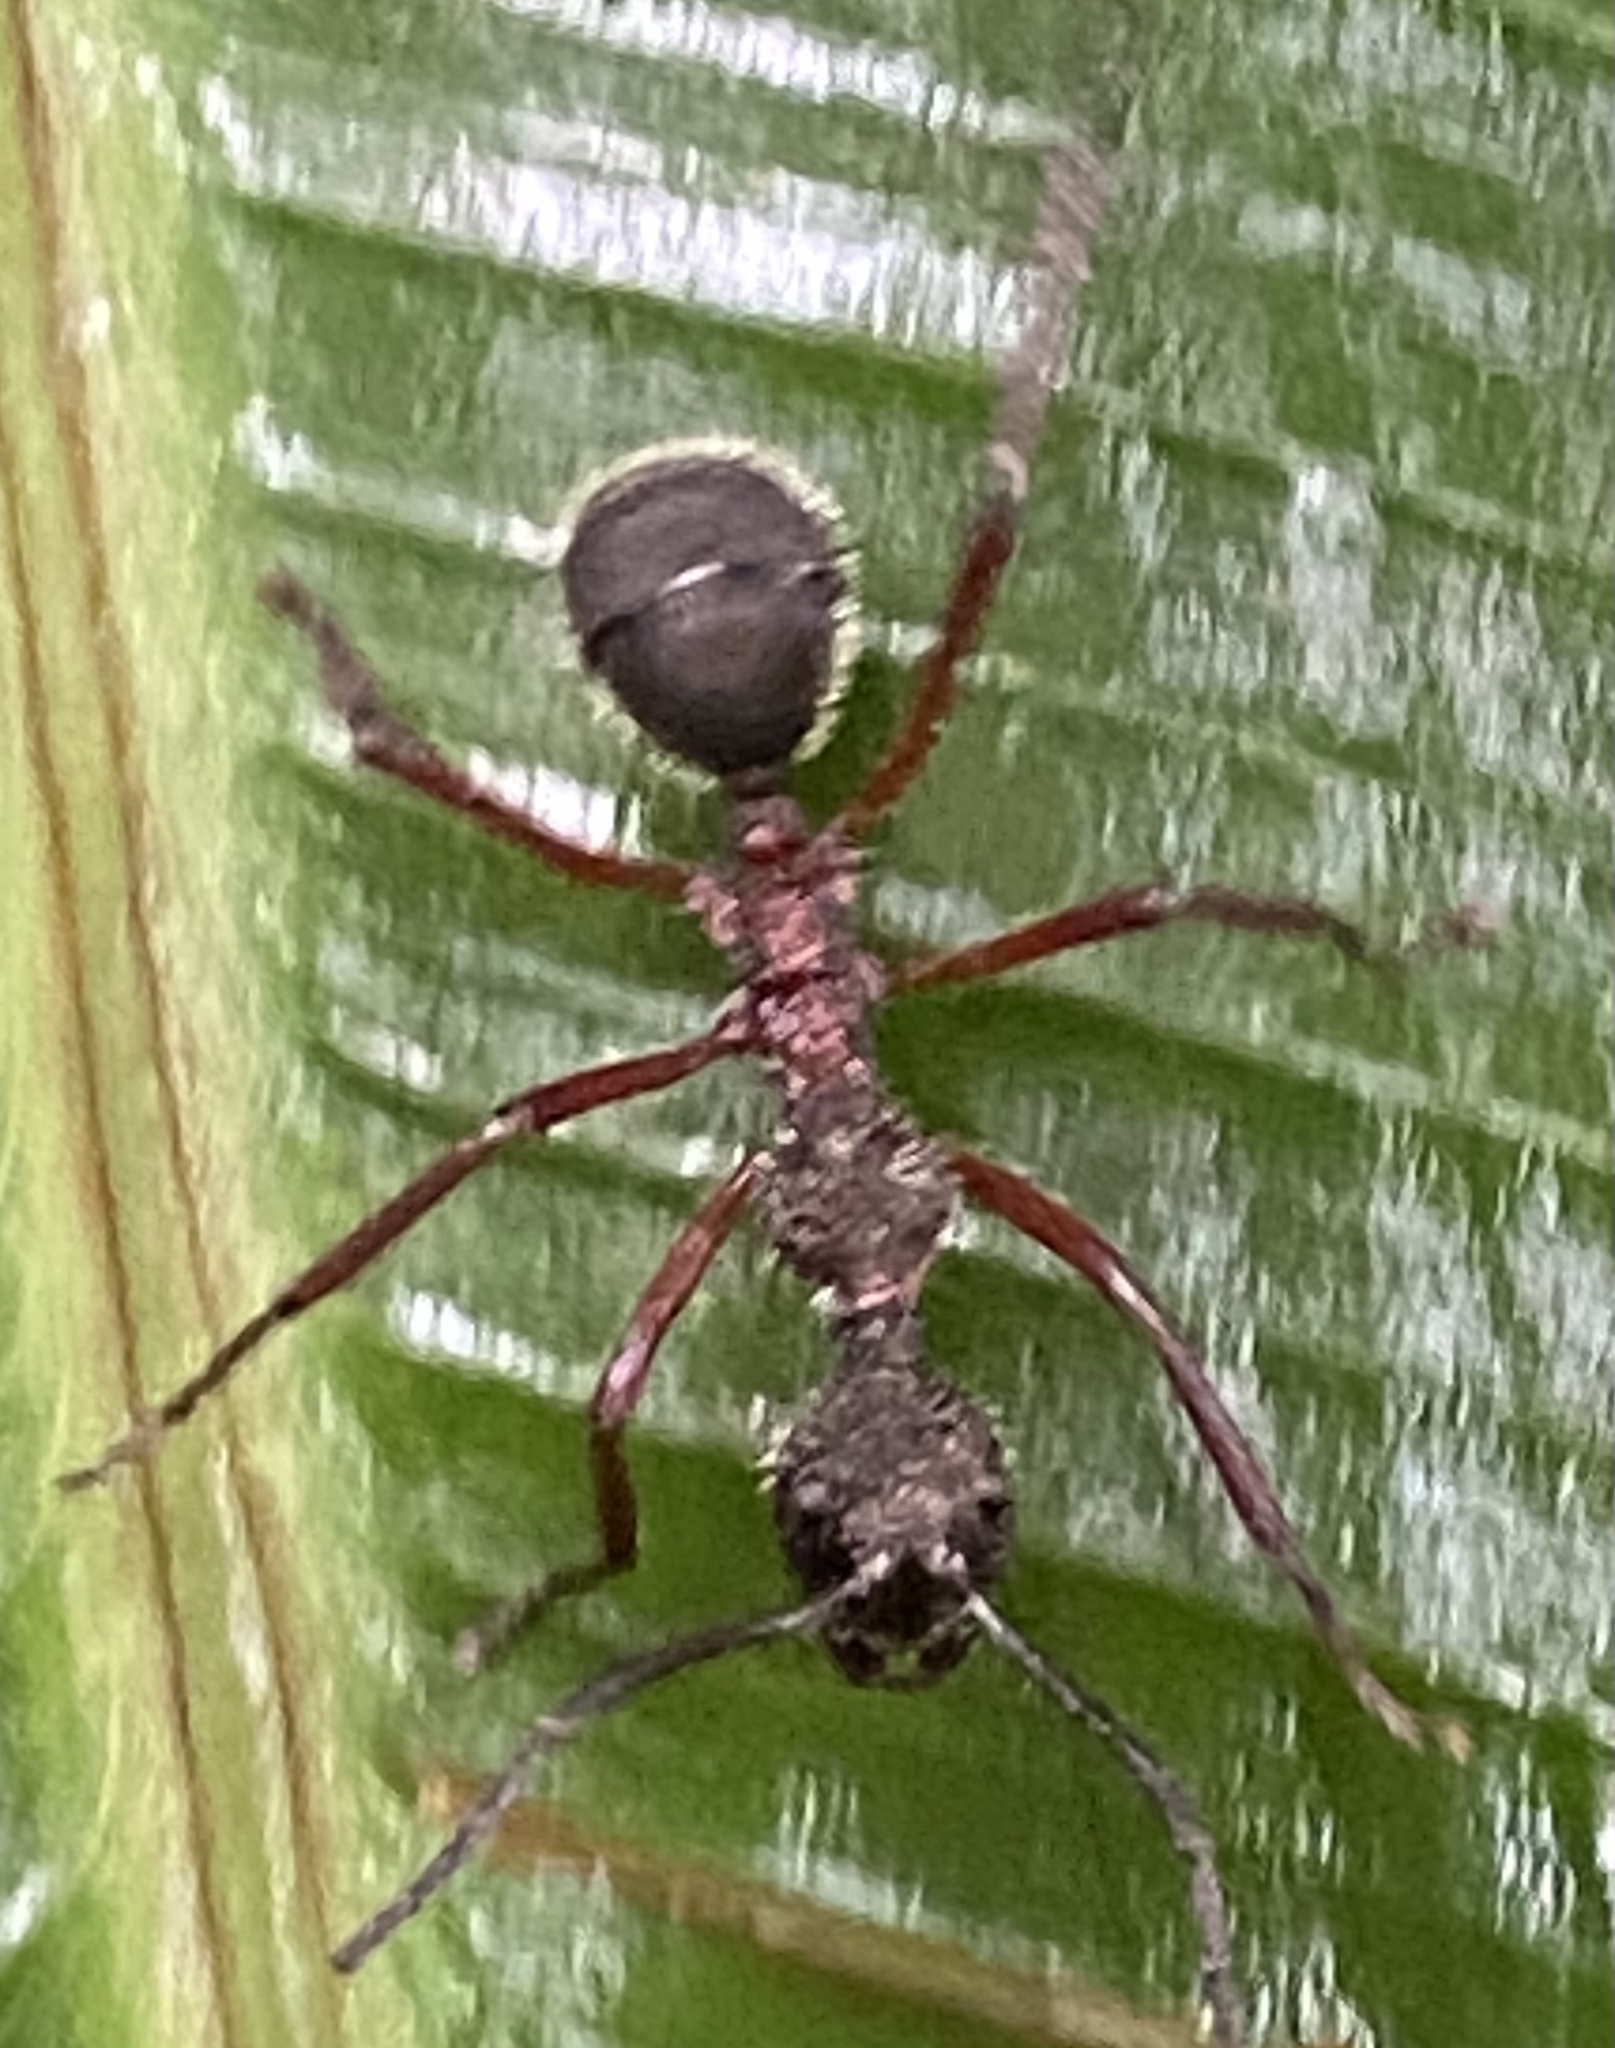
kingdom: Animalia
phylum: Arthropoda
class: Insecta
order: Hymenoptera
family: Formicidae
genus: Dolichoderus
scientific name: Dolichoderus attelaboides
